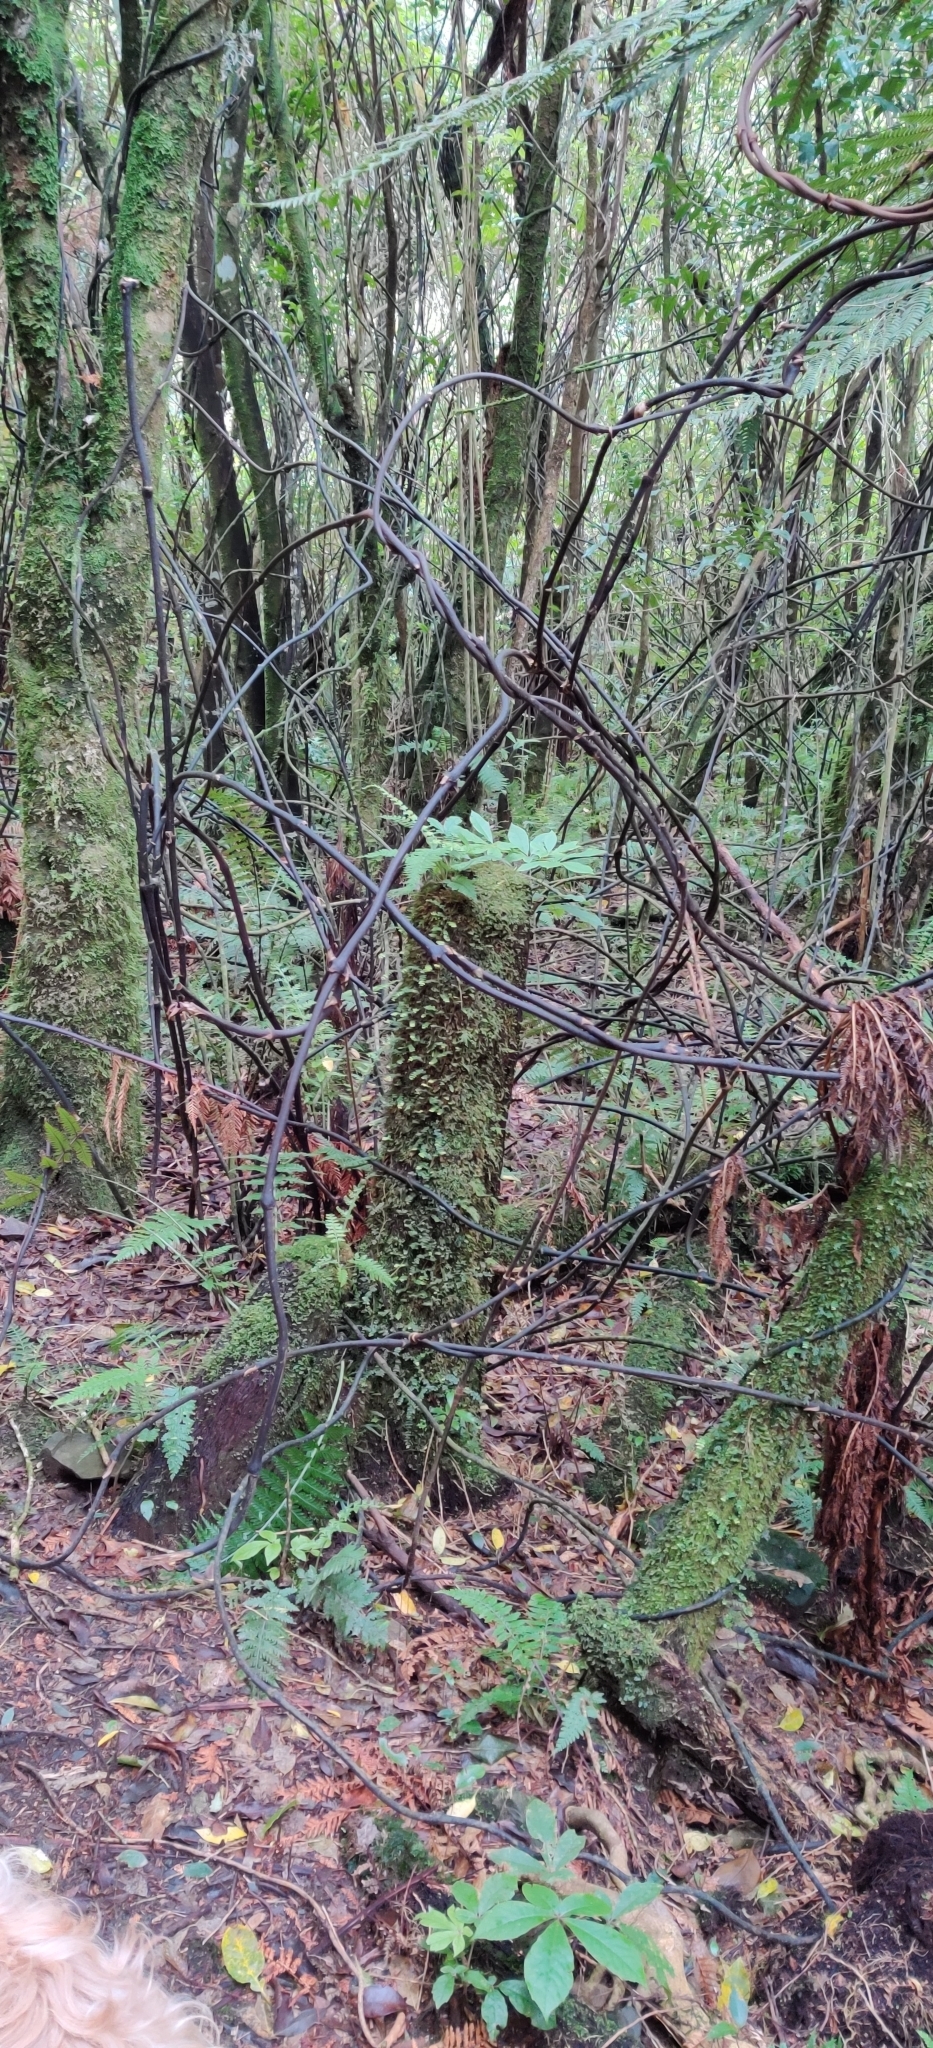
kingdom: Plantae
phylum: Tracheophyta
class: Liliopsida
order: Liliales
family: Ripogonaceae
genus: Ripogonum
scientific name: Ripogonum scandens
